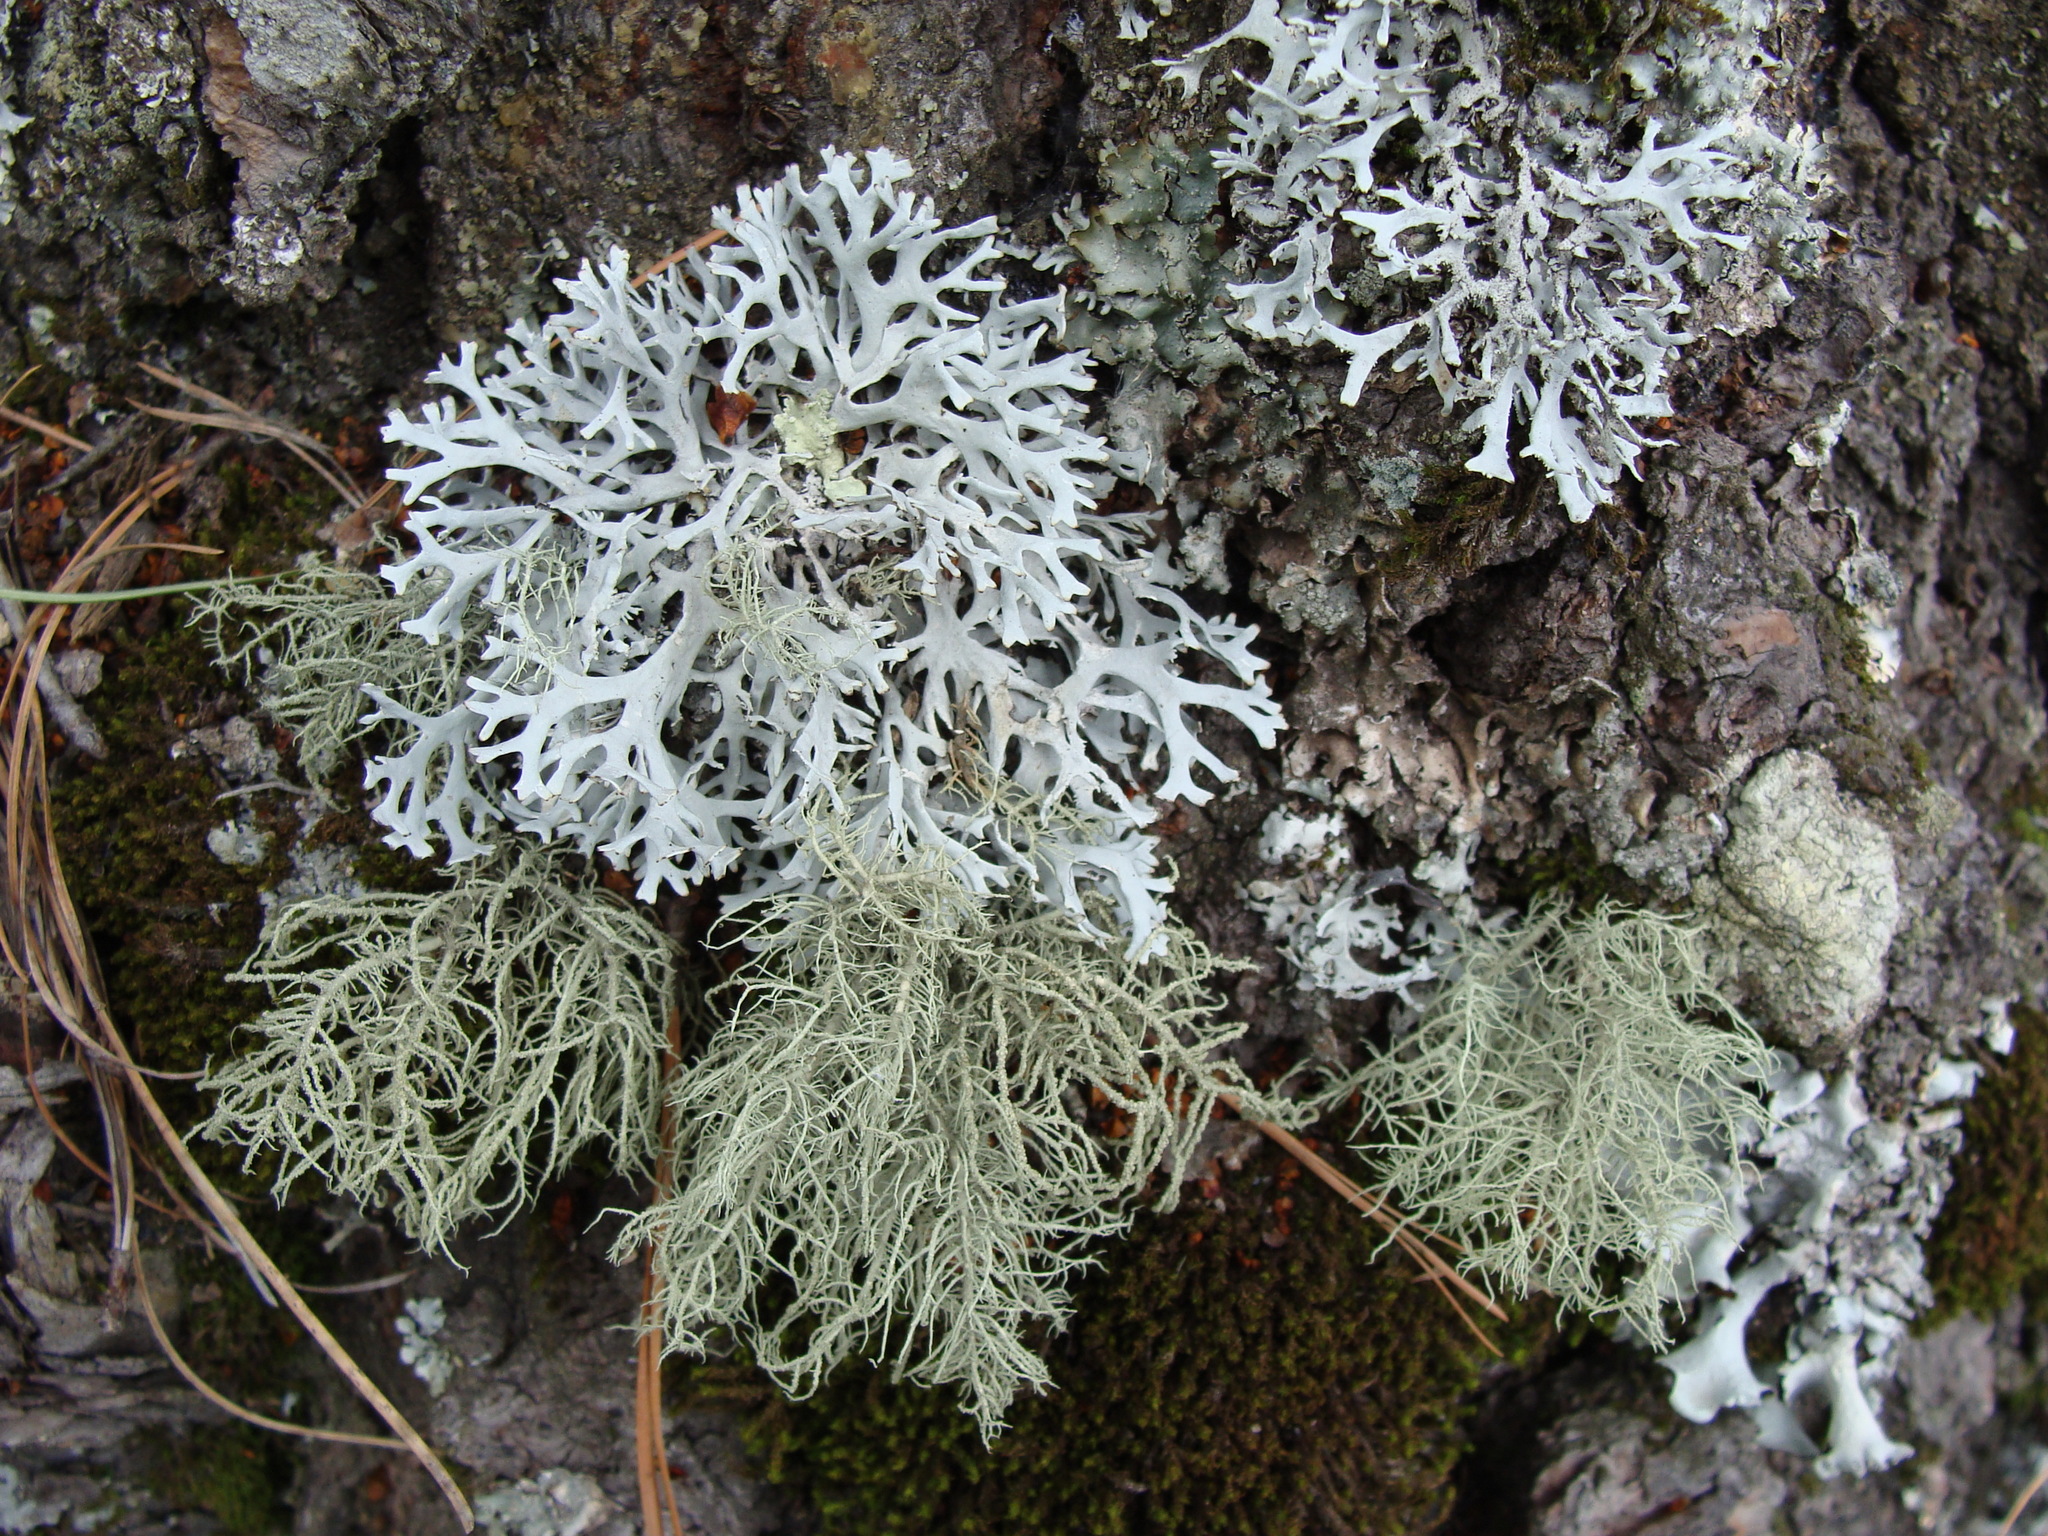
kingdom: Fungi
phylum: Ascomycota
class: Lecanoromycetes
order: Lecanorales
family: Parmeliaceae
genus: Pseudevernia
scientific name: Pseudevernia consocians
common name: Common antler lichen
